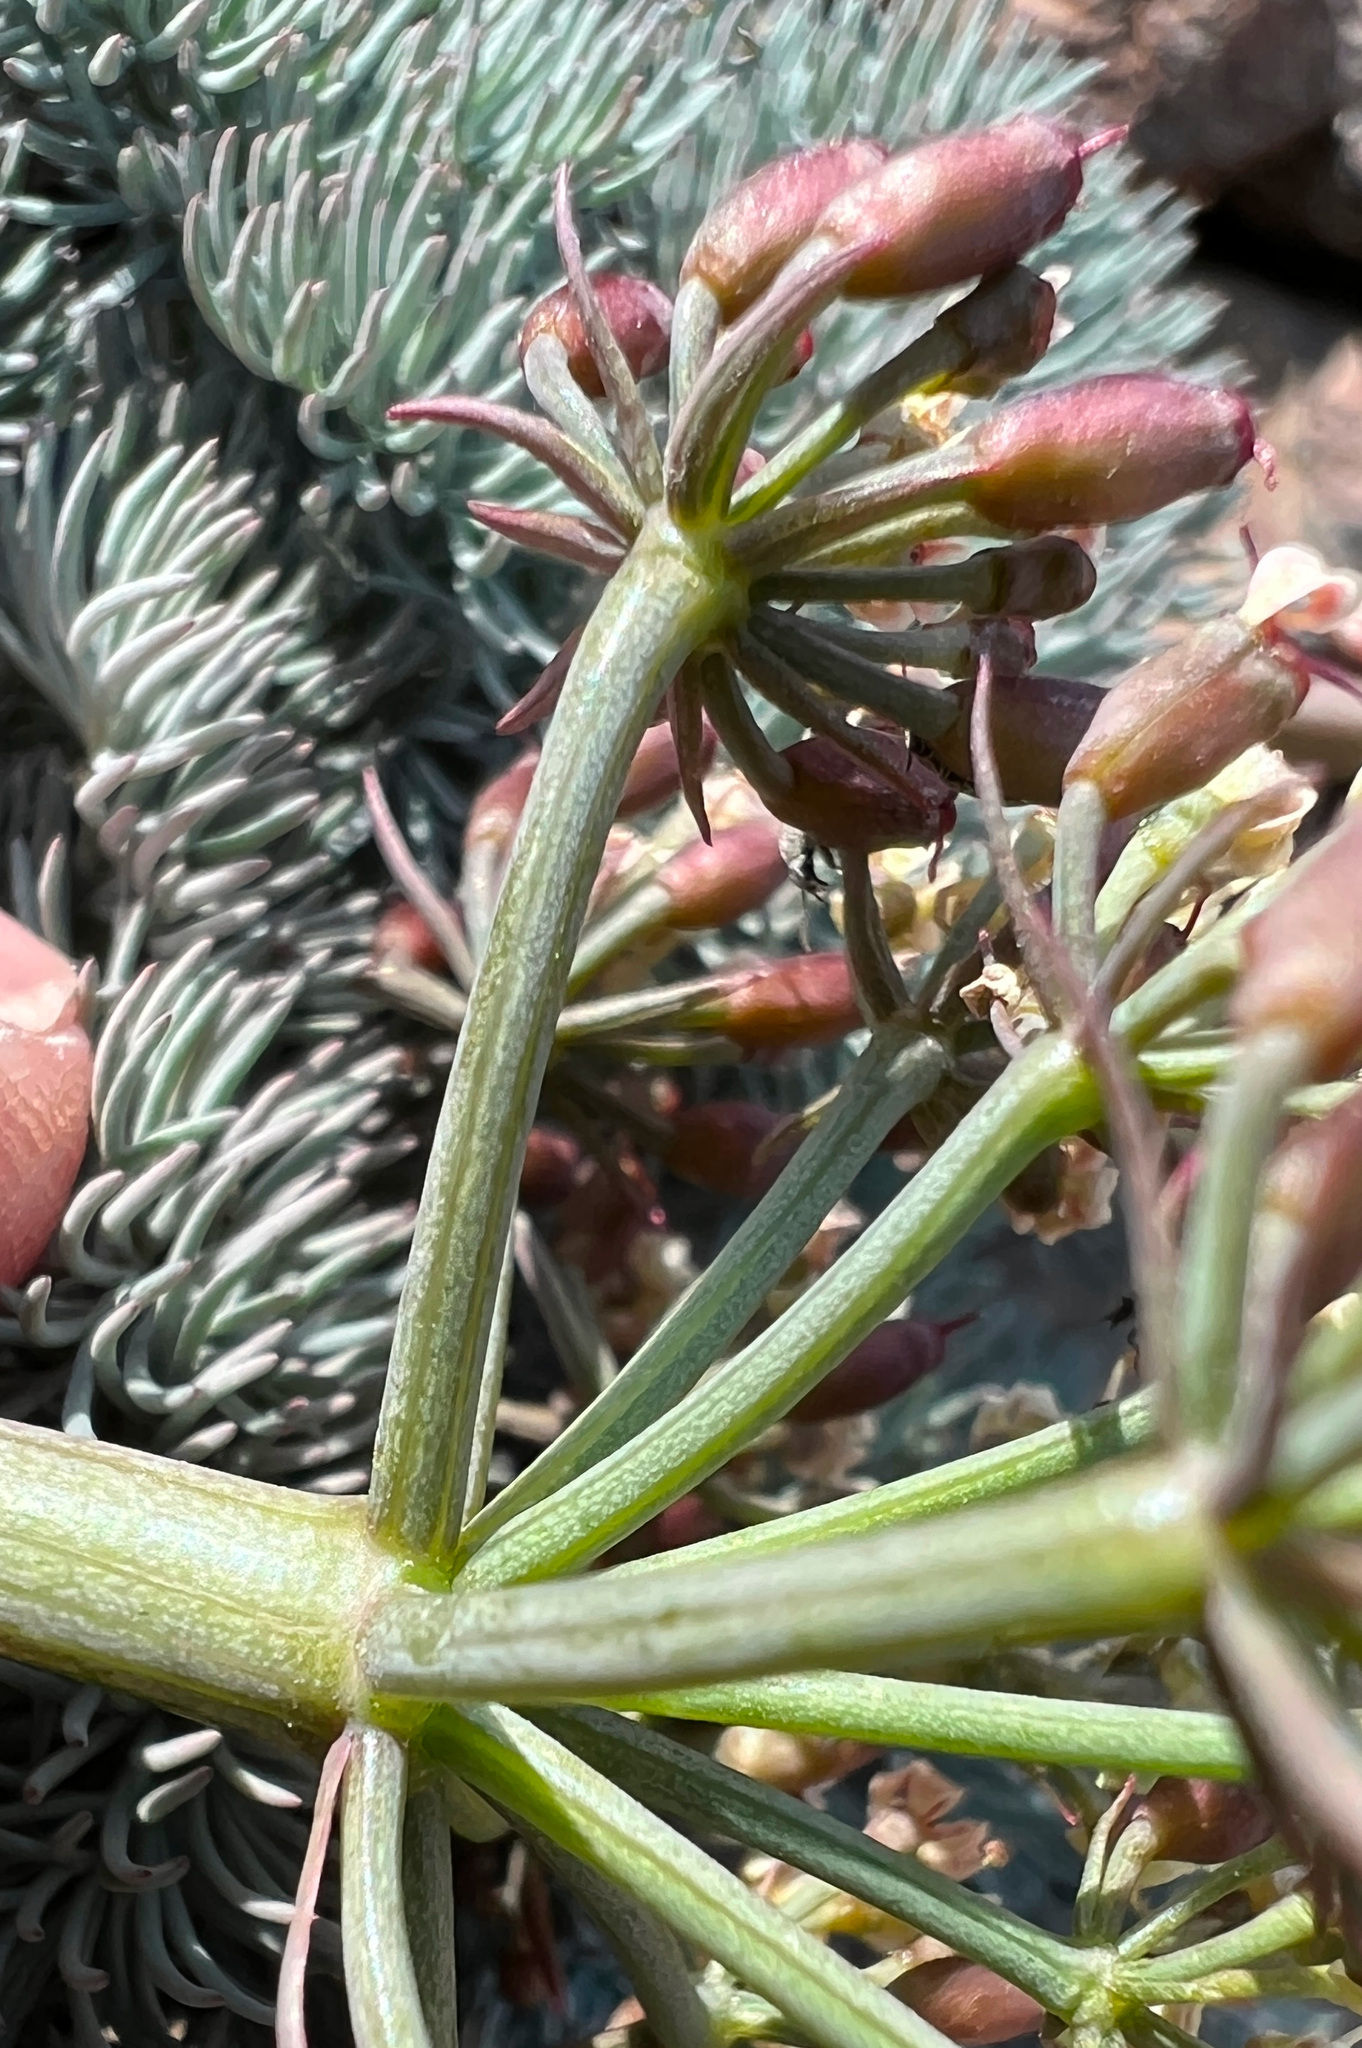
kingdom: Plantae
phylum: Tracheophyta
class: Magnoliopsida
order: Apiales
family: Apiaceae
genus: Lomatium
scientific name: Lomatium tuberosum
